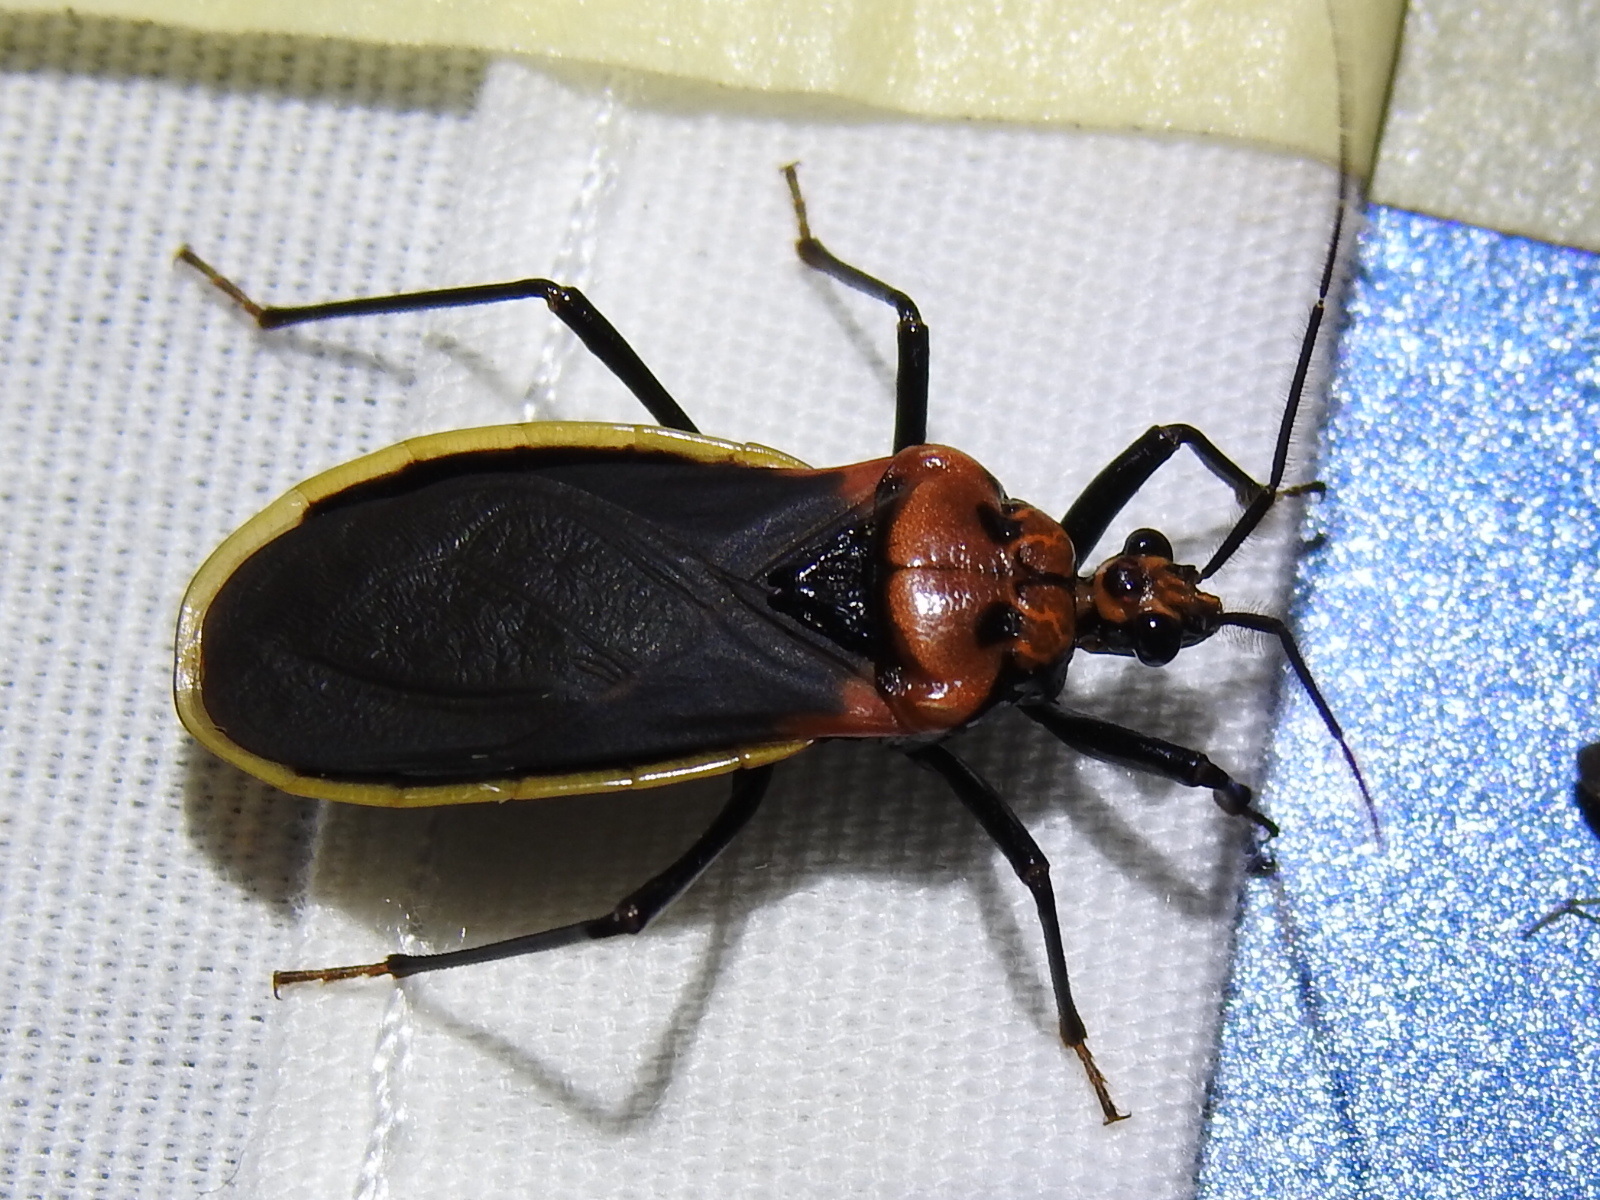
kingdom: Animalia
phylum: Arthropoda
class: Insecta
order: Hemiptera
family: Reduviidae
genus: Rhiginia
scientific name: Rhiginia cinctiventris
